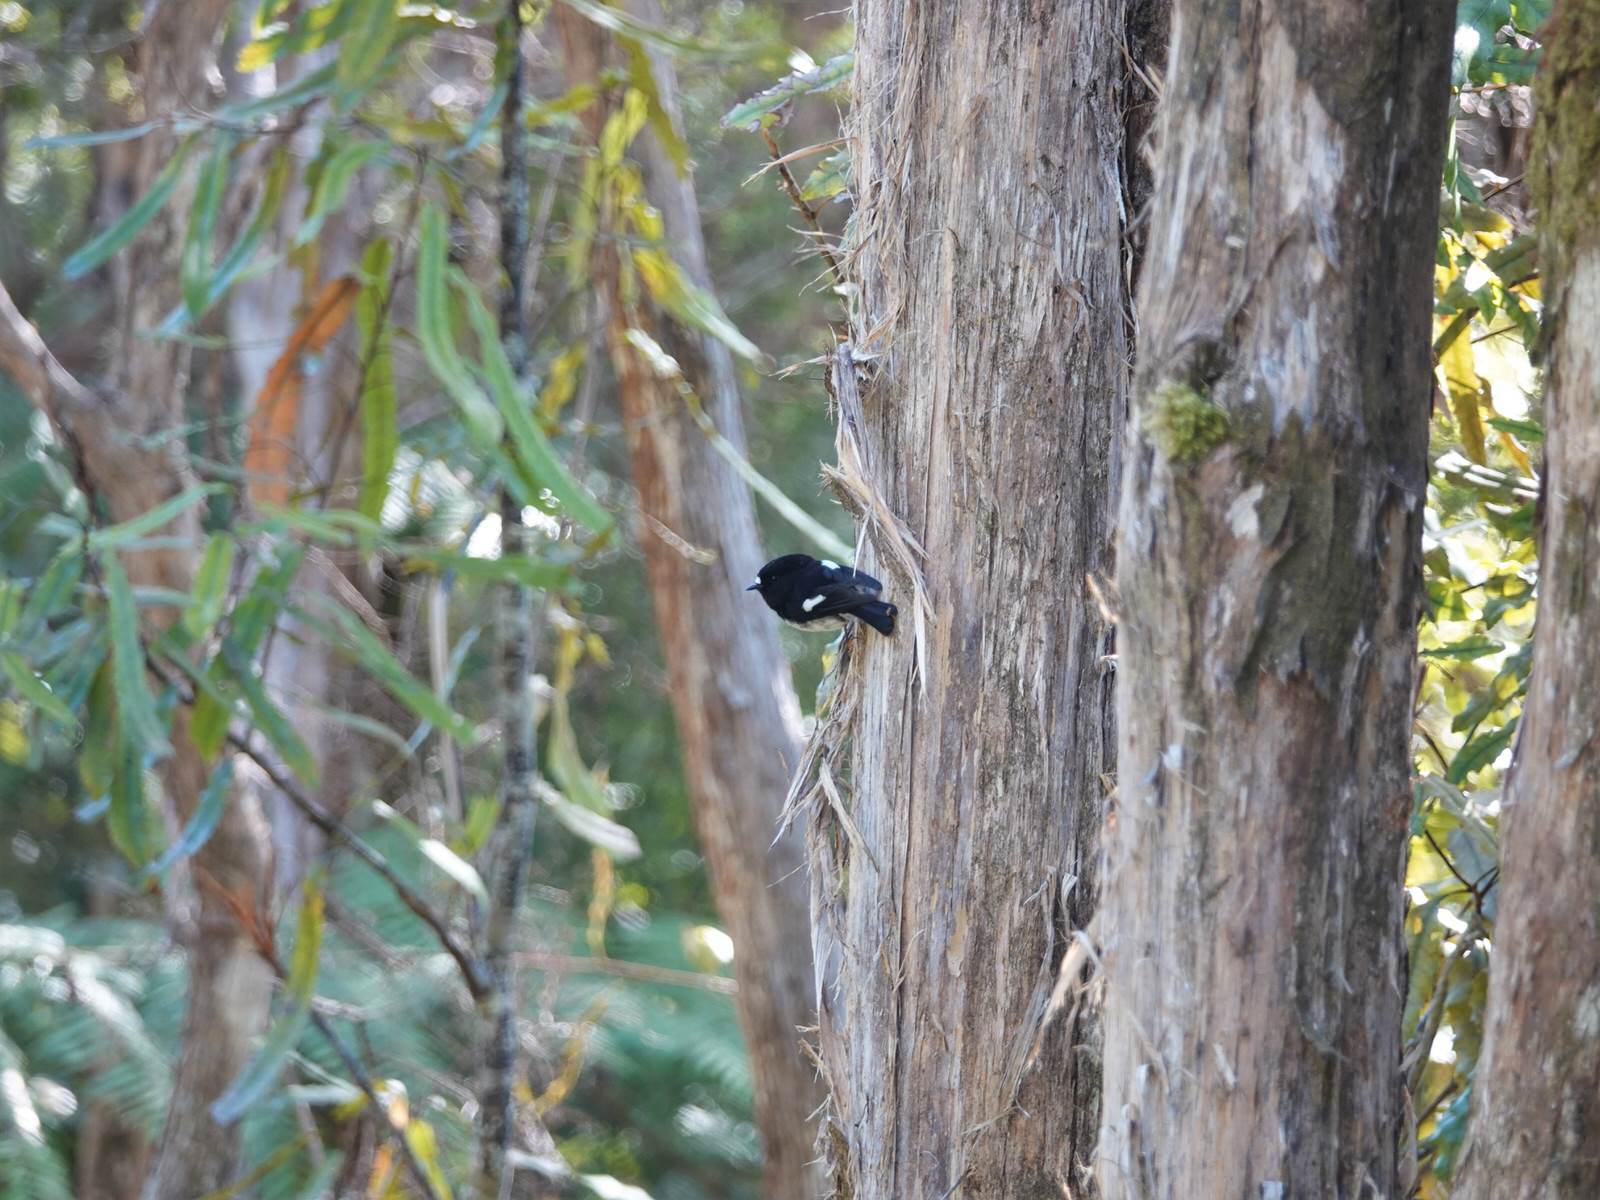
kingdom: Animalia
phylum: Chordata
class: Aves
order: Passeriformes
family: Petroicidae
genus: Petroica
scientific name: Petroica macrocephala
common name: Tomtit
